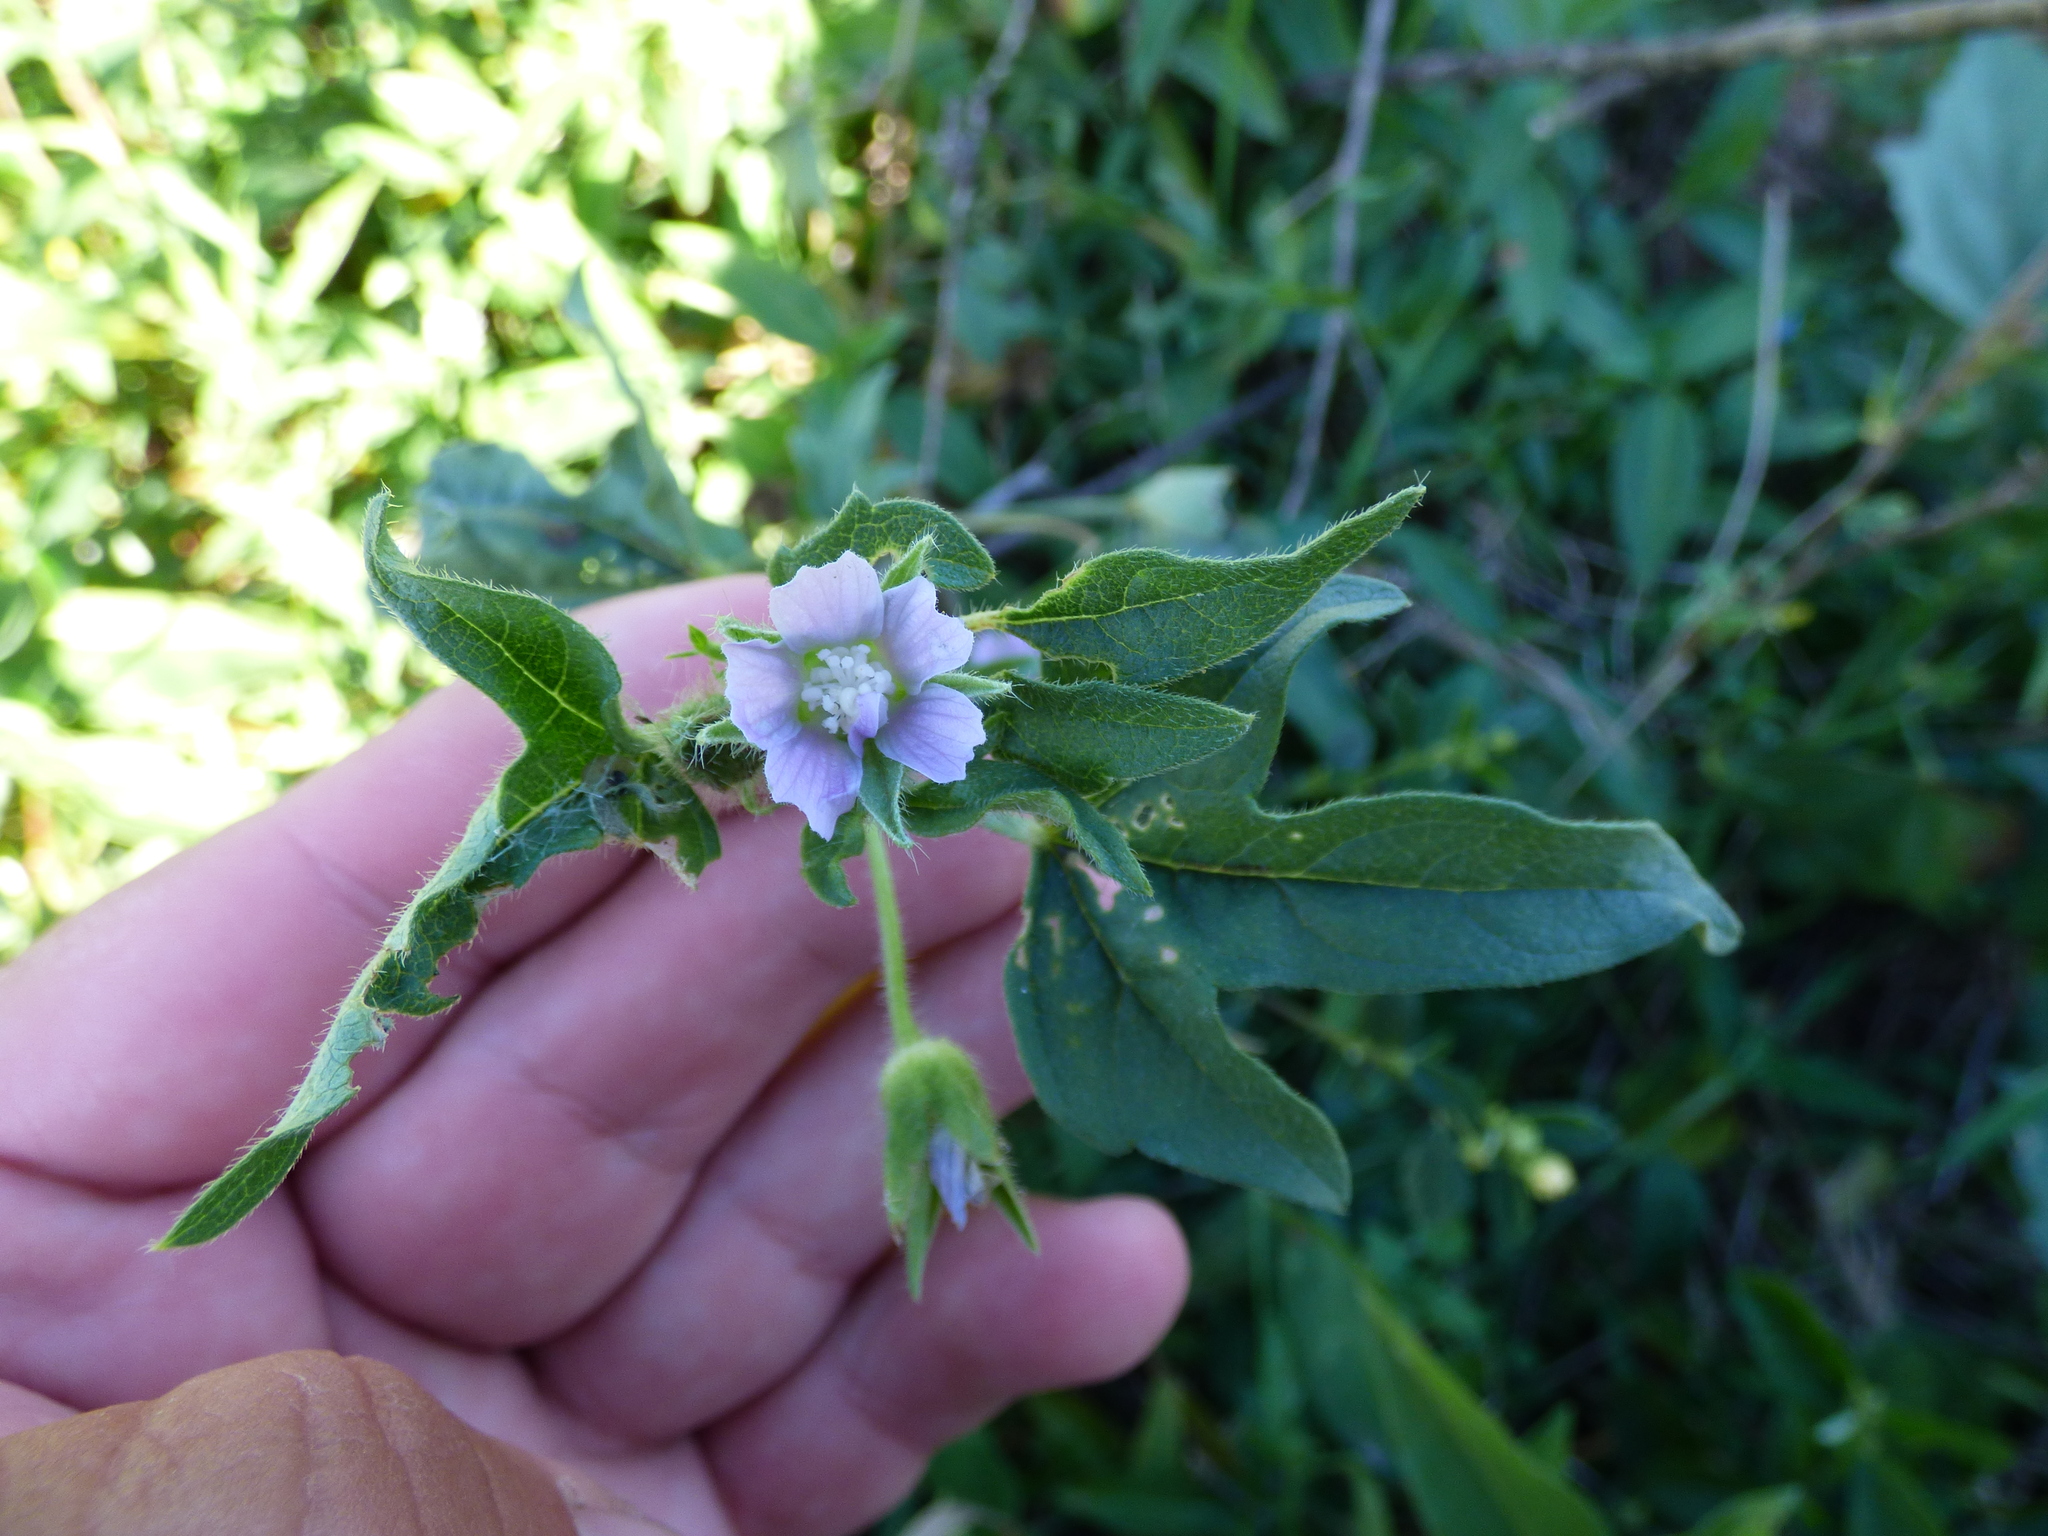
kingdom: Plantae
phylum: Tracheophyta
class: Magnoliopsida
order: Malvales
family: Malvaceae
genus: Anoda
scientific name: Anoda cristata
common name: Spurred anoda
